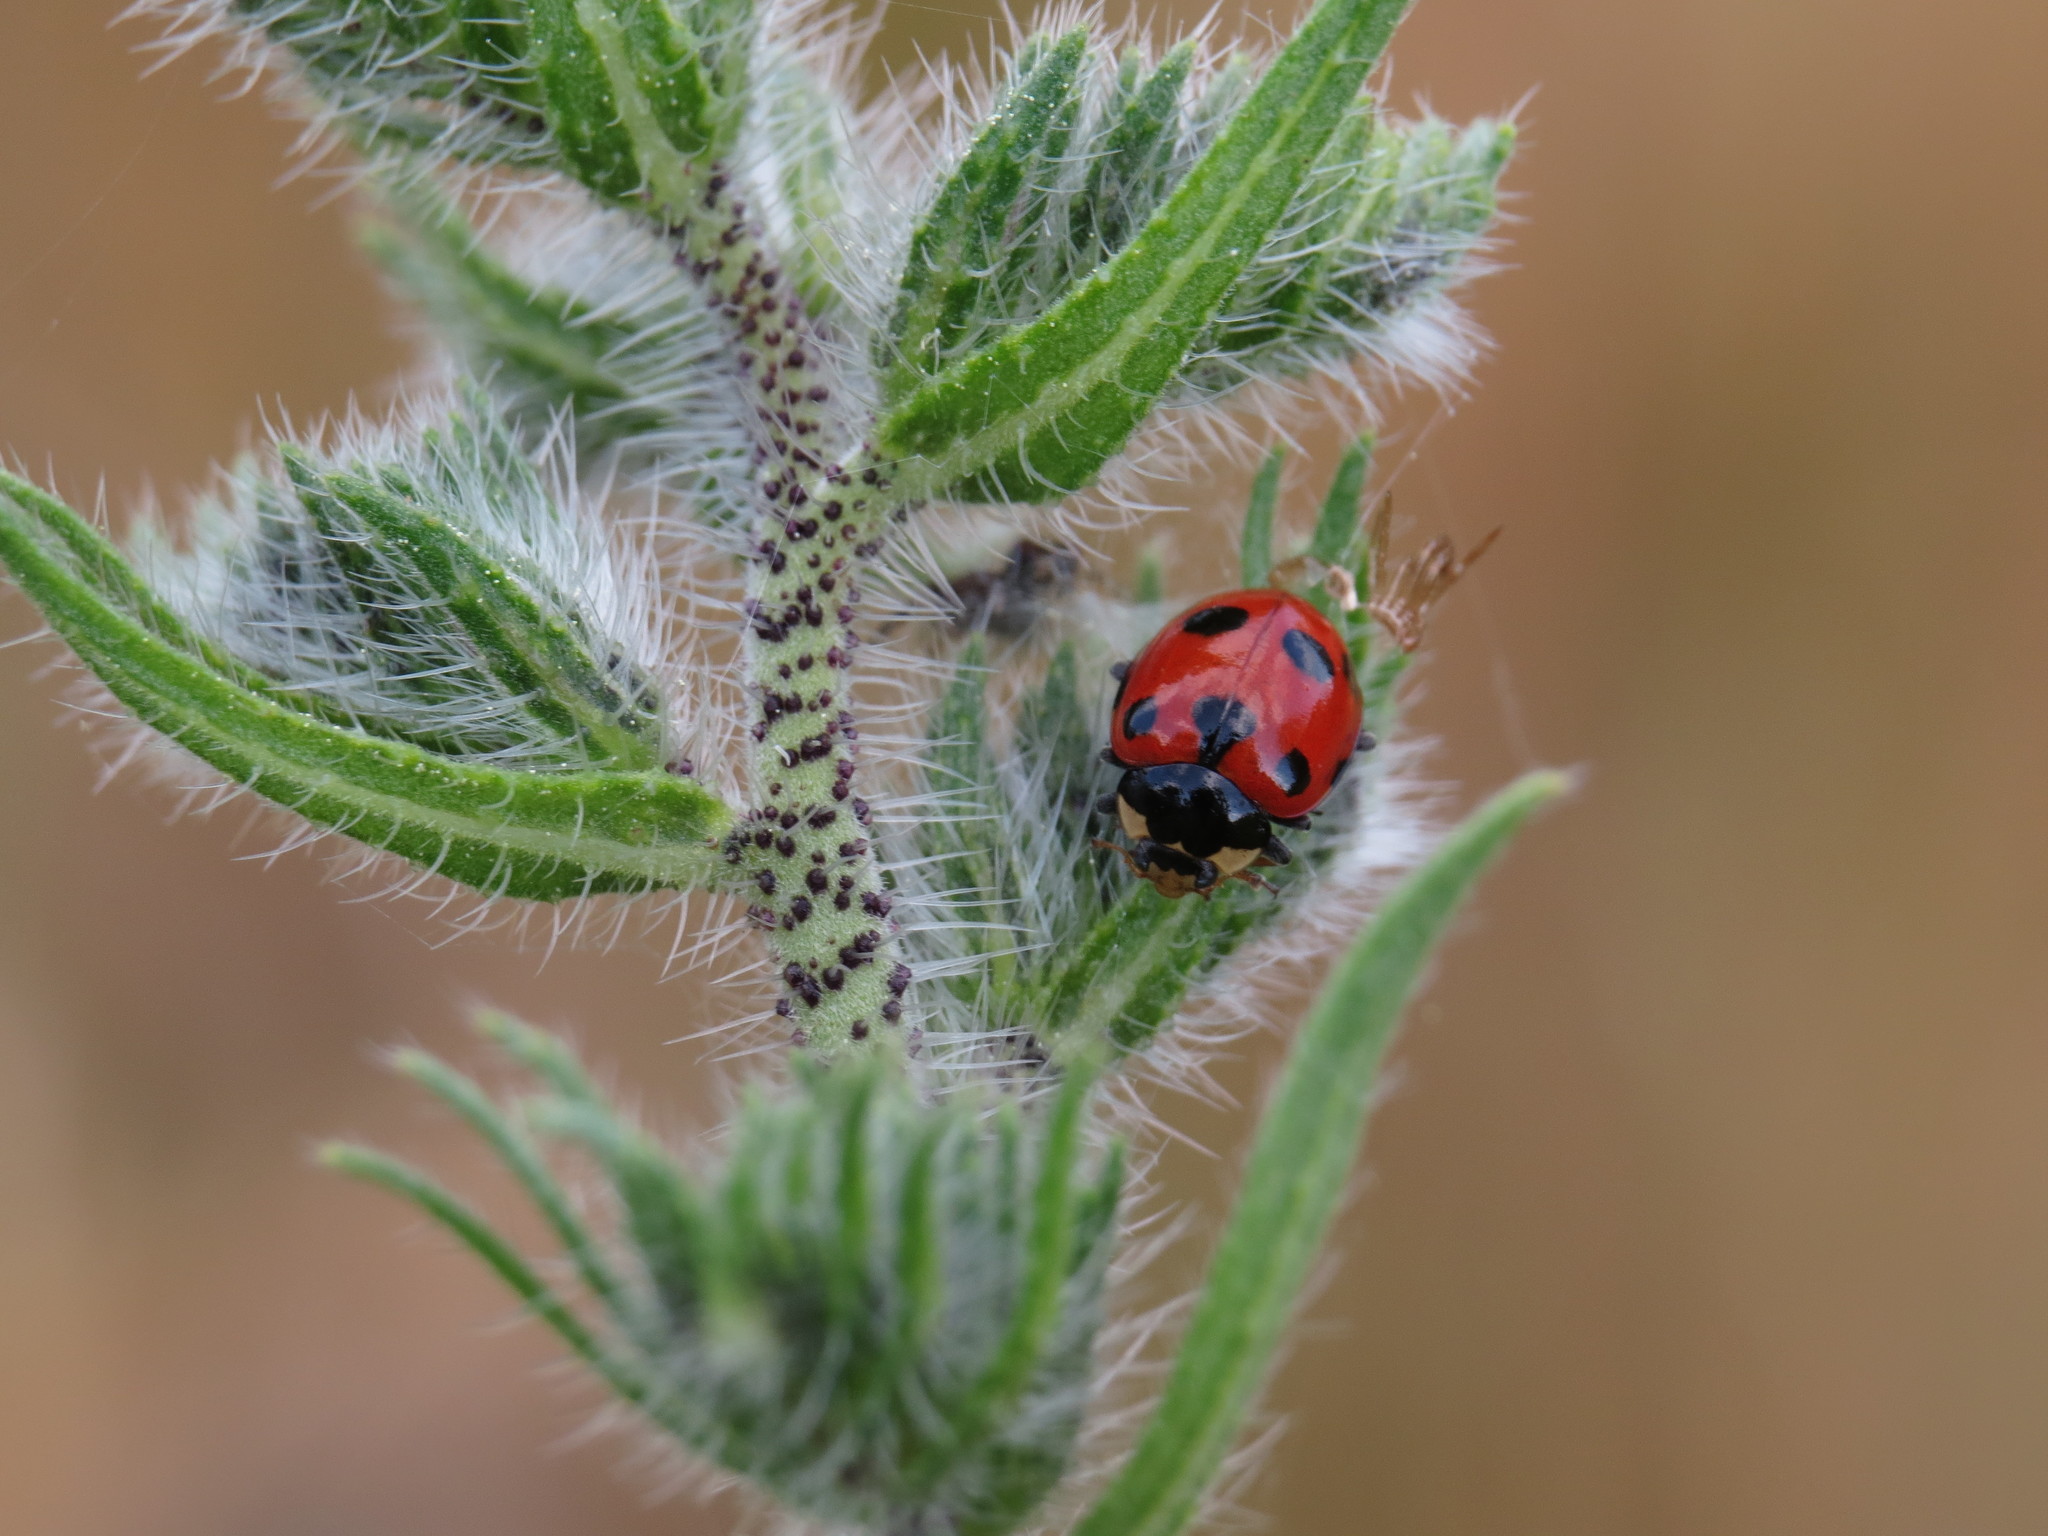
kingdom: Animalia
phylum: Arthropoda
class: Insecta
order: Coleoptera
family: Coccinellidae
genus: Ceratomegilla
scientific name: Ceratomegilla undecimnotata
